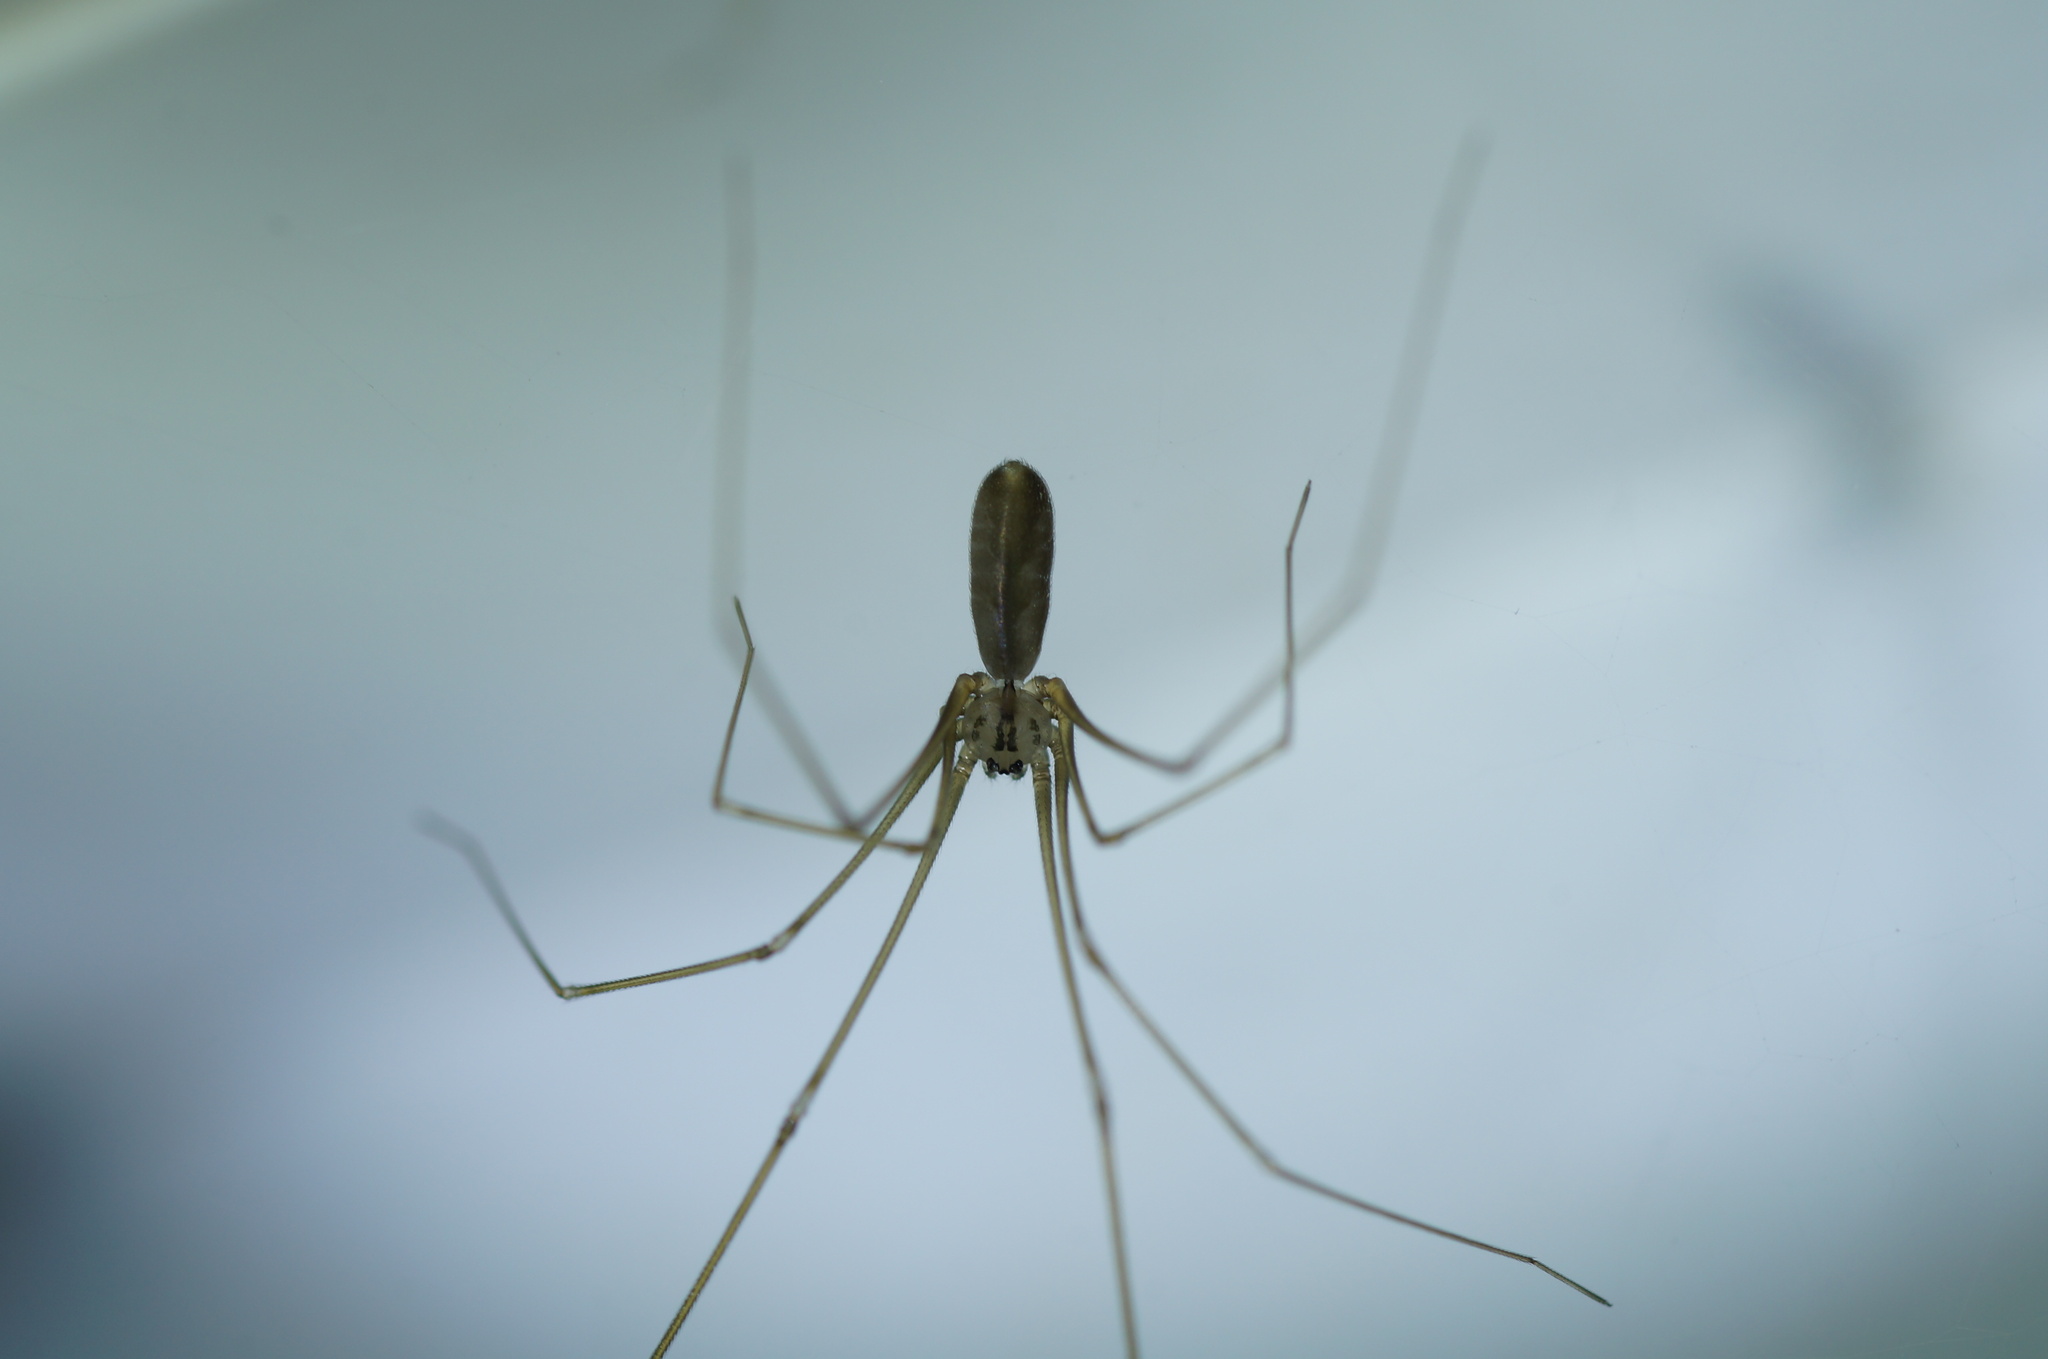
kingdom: Animalia
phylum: Arthropoda
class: Arachnida
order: Araneae
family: Pholcidae
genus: Pholcus
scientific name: Pholcus opilionoides
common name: Daddylongleg spider
